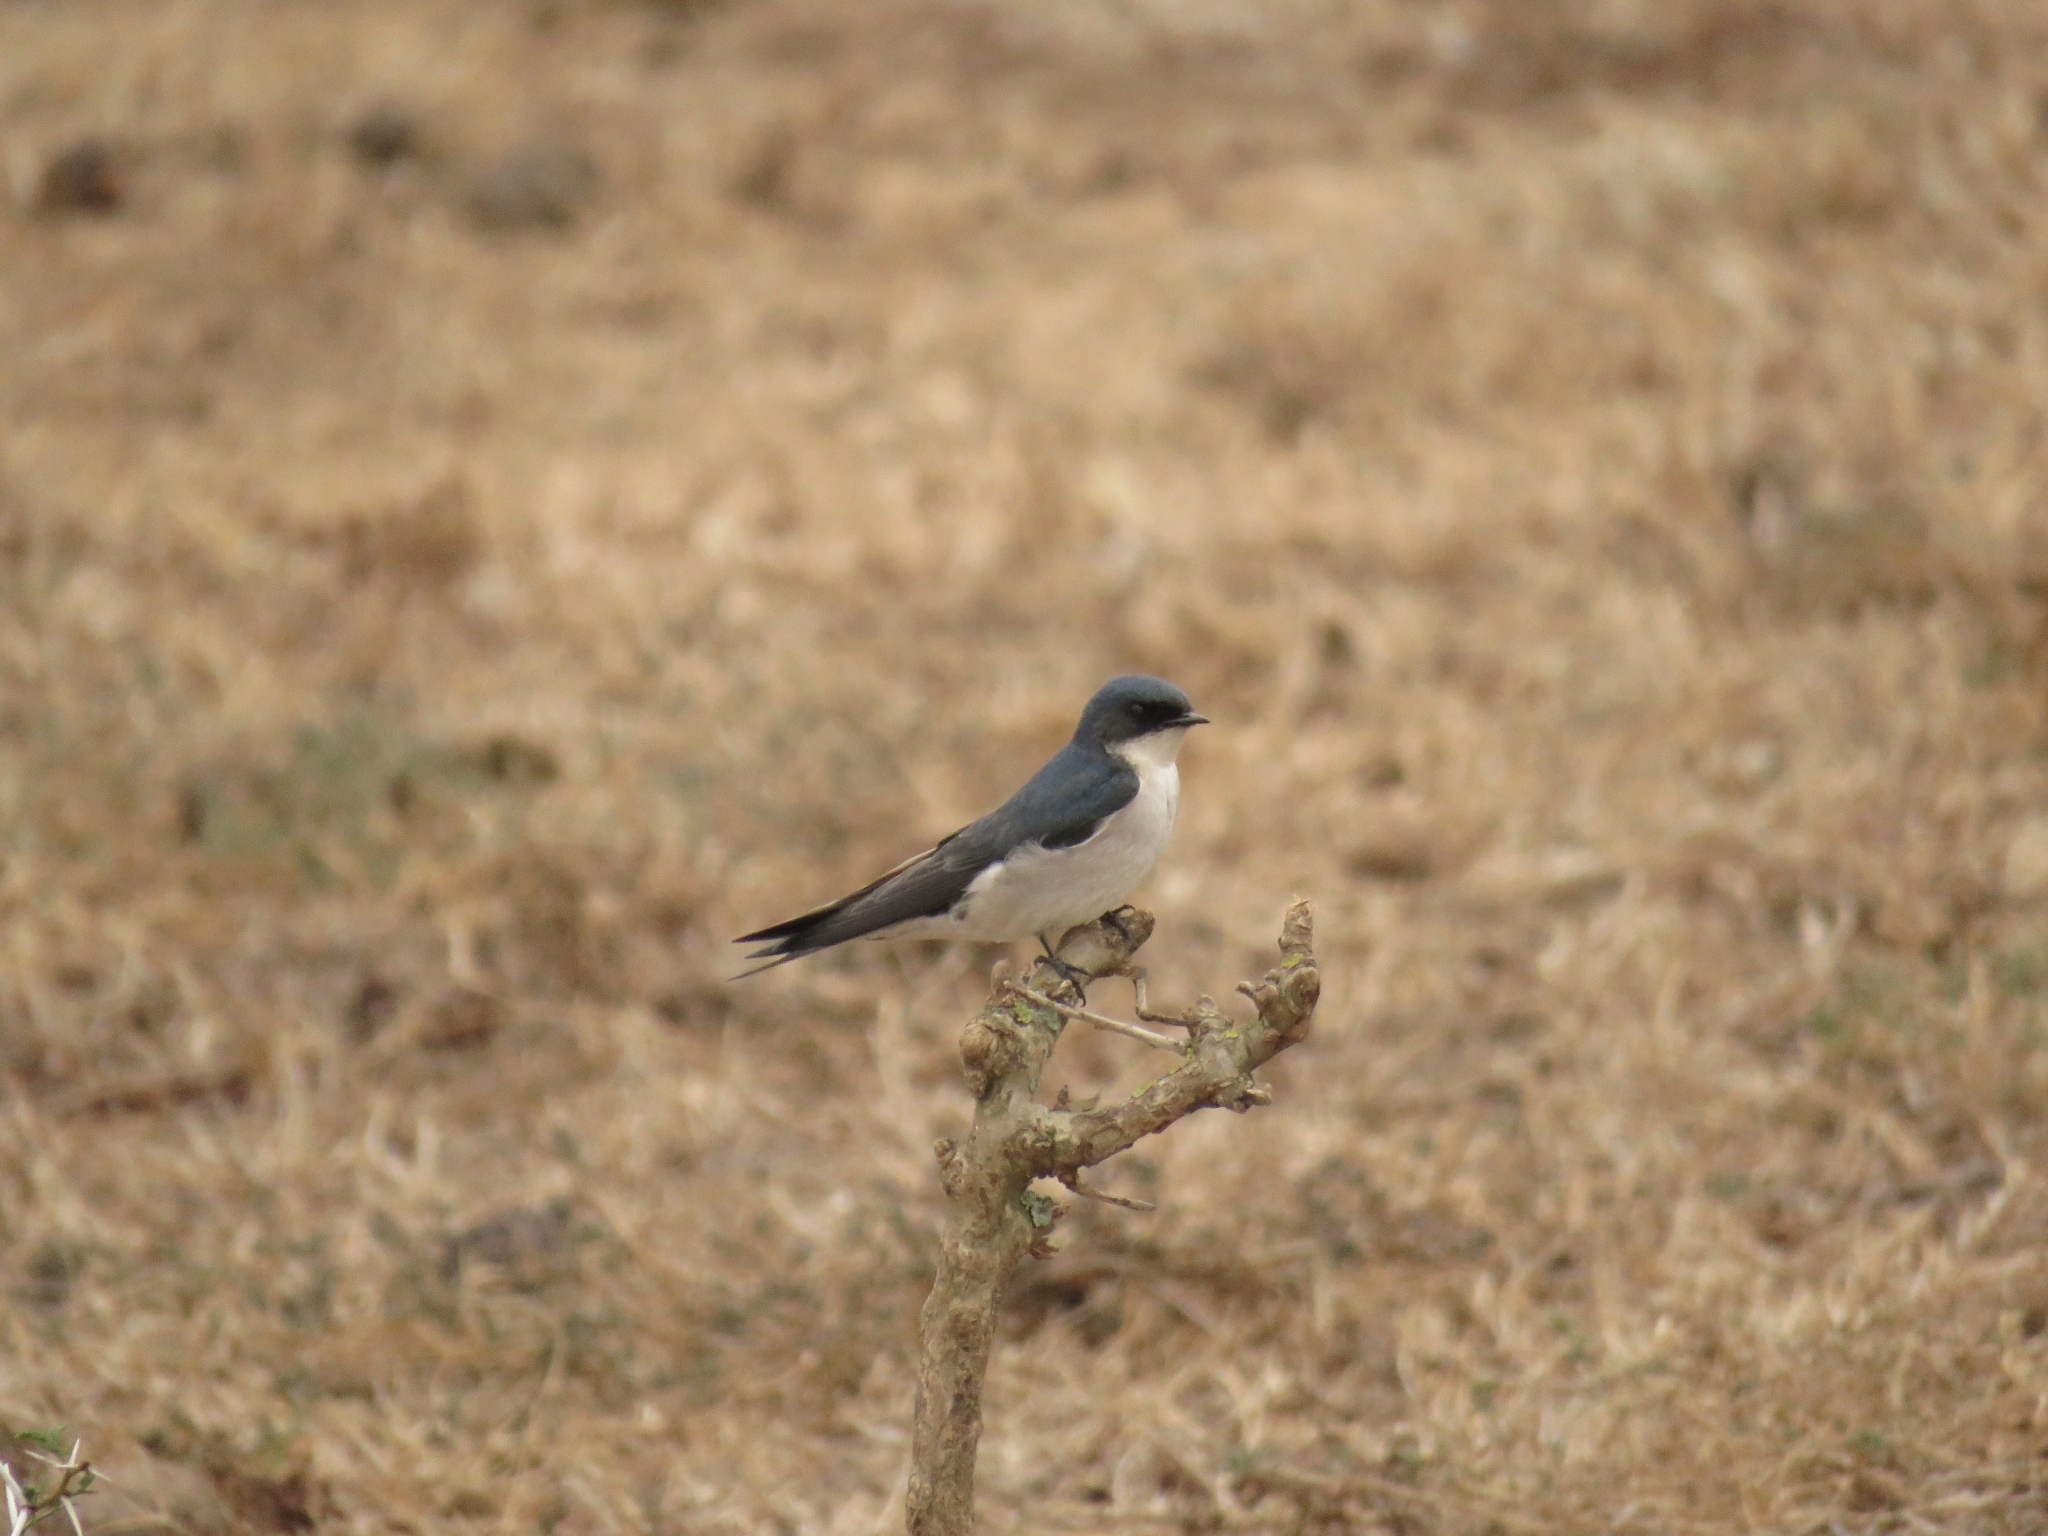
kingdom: Animalia
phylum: Chordata
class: Aves
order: Passeriformes
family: Hirundinidae
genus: Hirundo
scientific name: Hirundo dimidiata
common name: Pearl-breasted swallow
